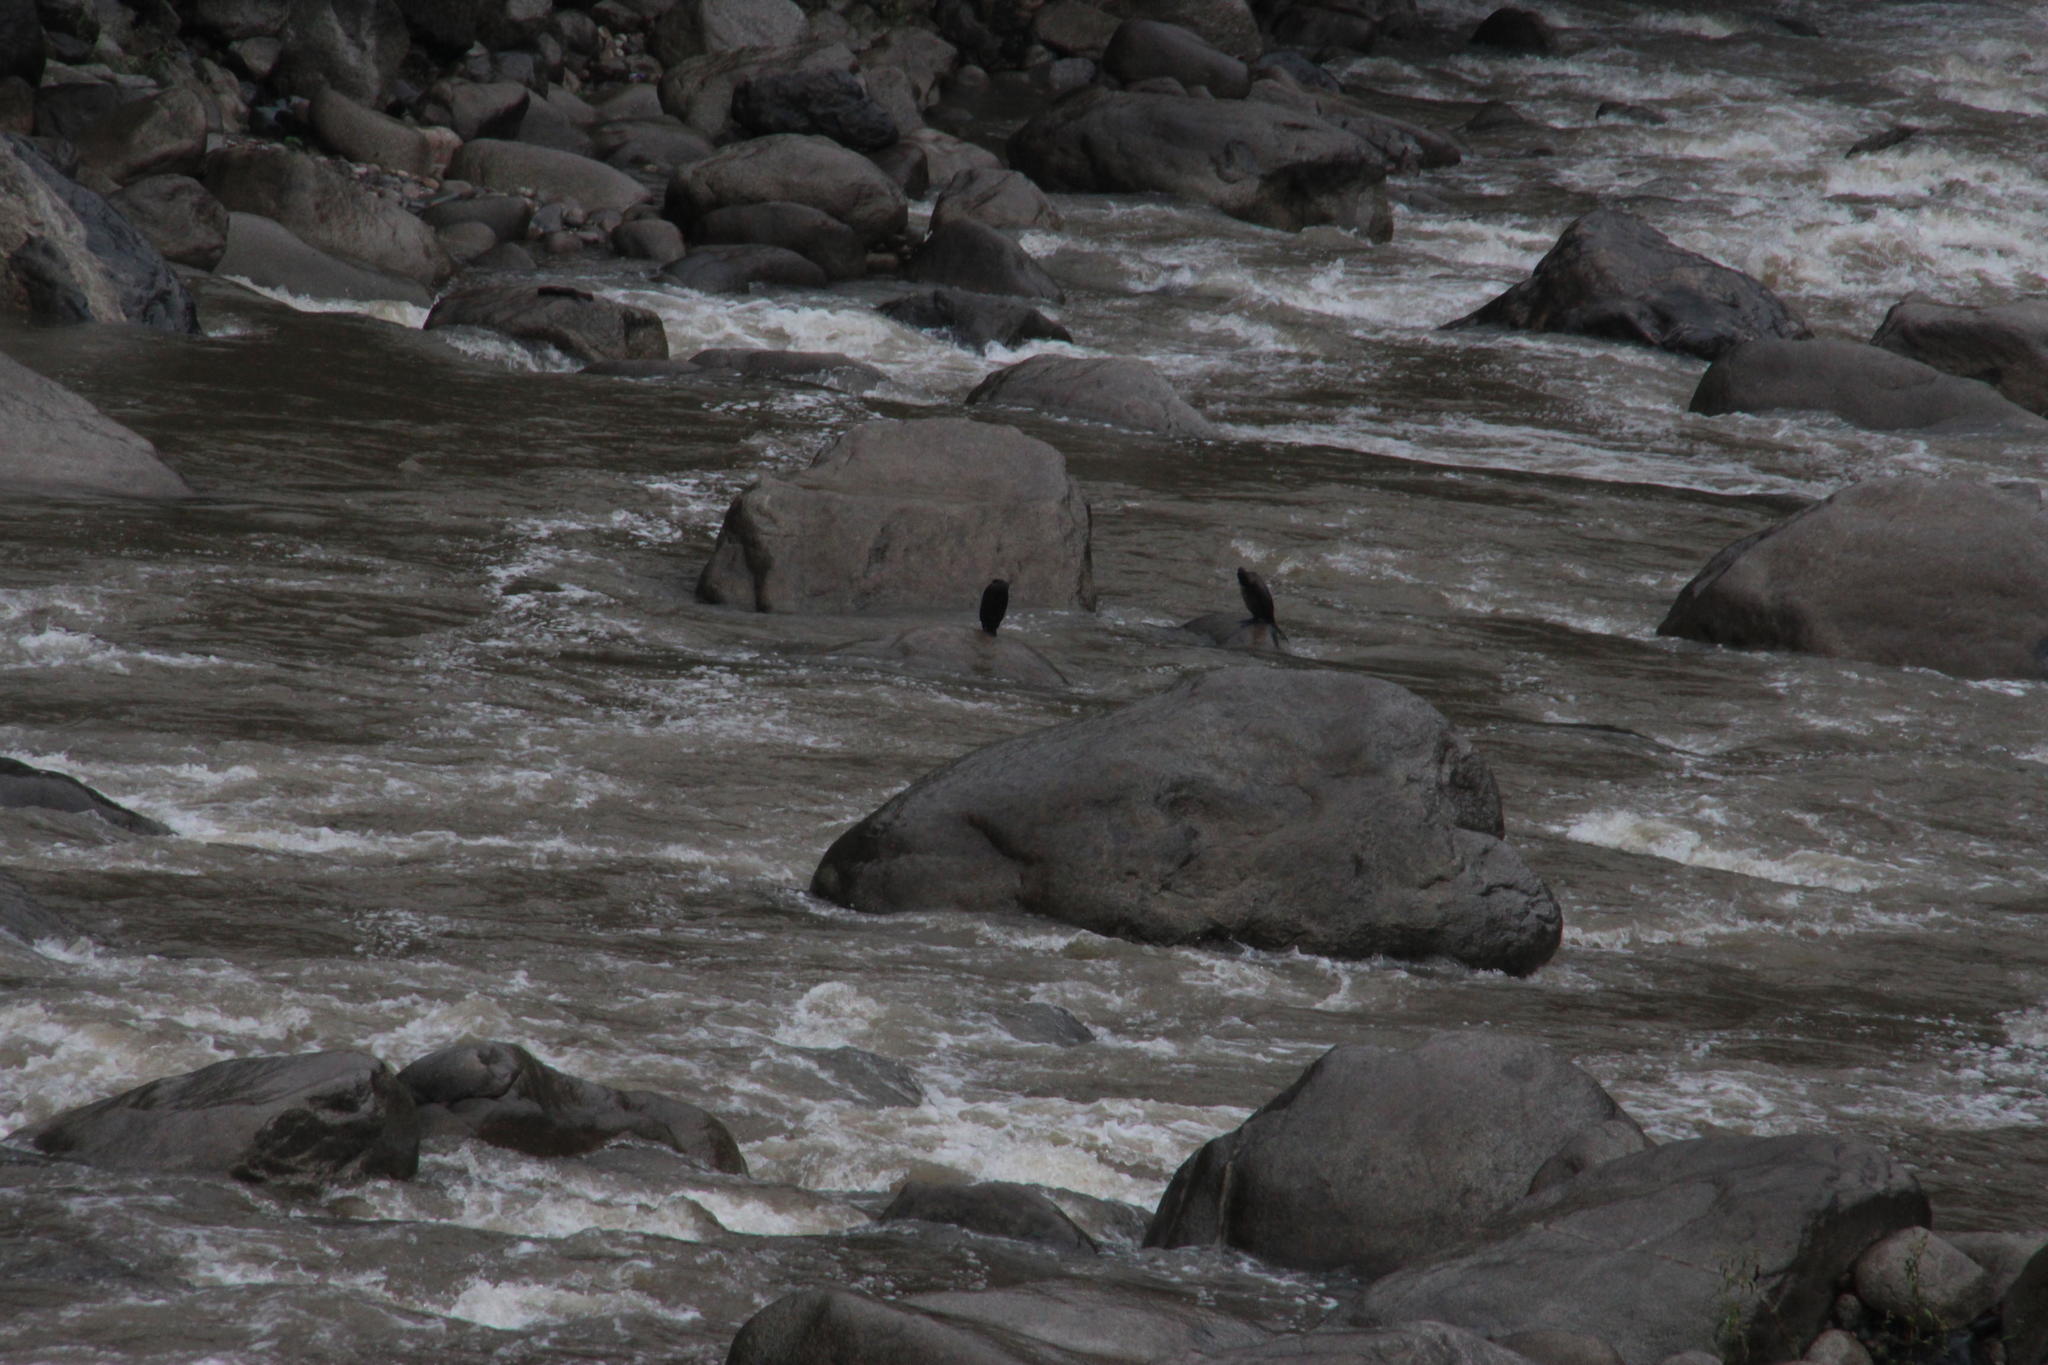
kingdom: Animalia
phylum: Chordata
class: Aves
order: Suliformes
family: Phalacrocoracidae
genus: Phalacrocorax
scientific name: Phalacrocorax brasilianus
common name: Neotropic cormorant
